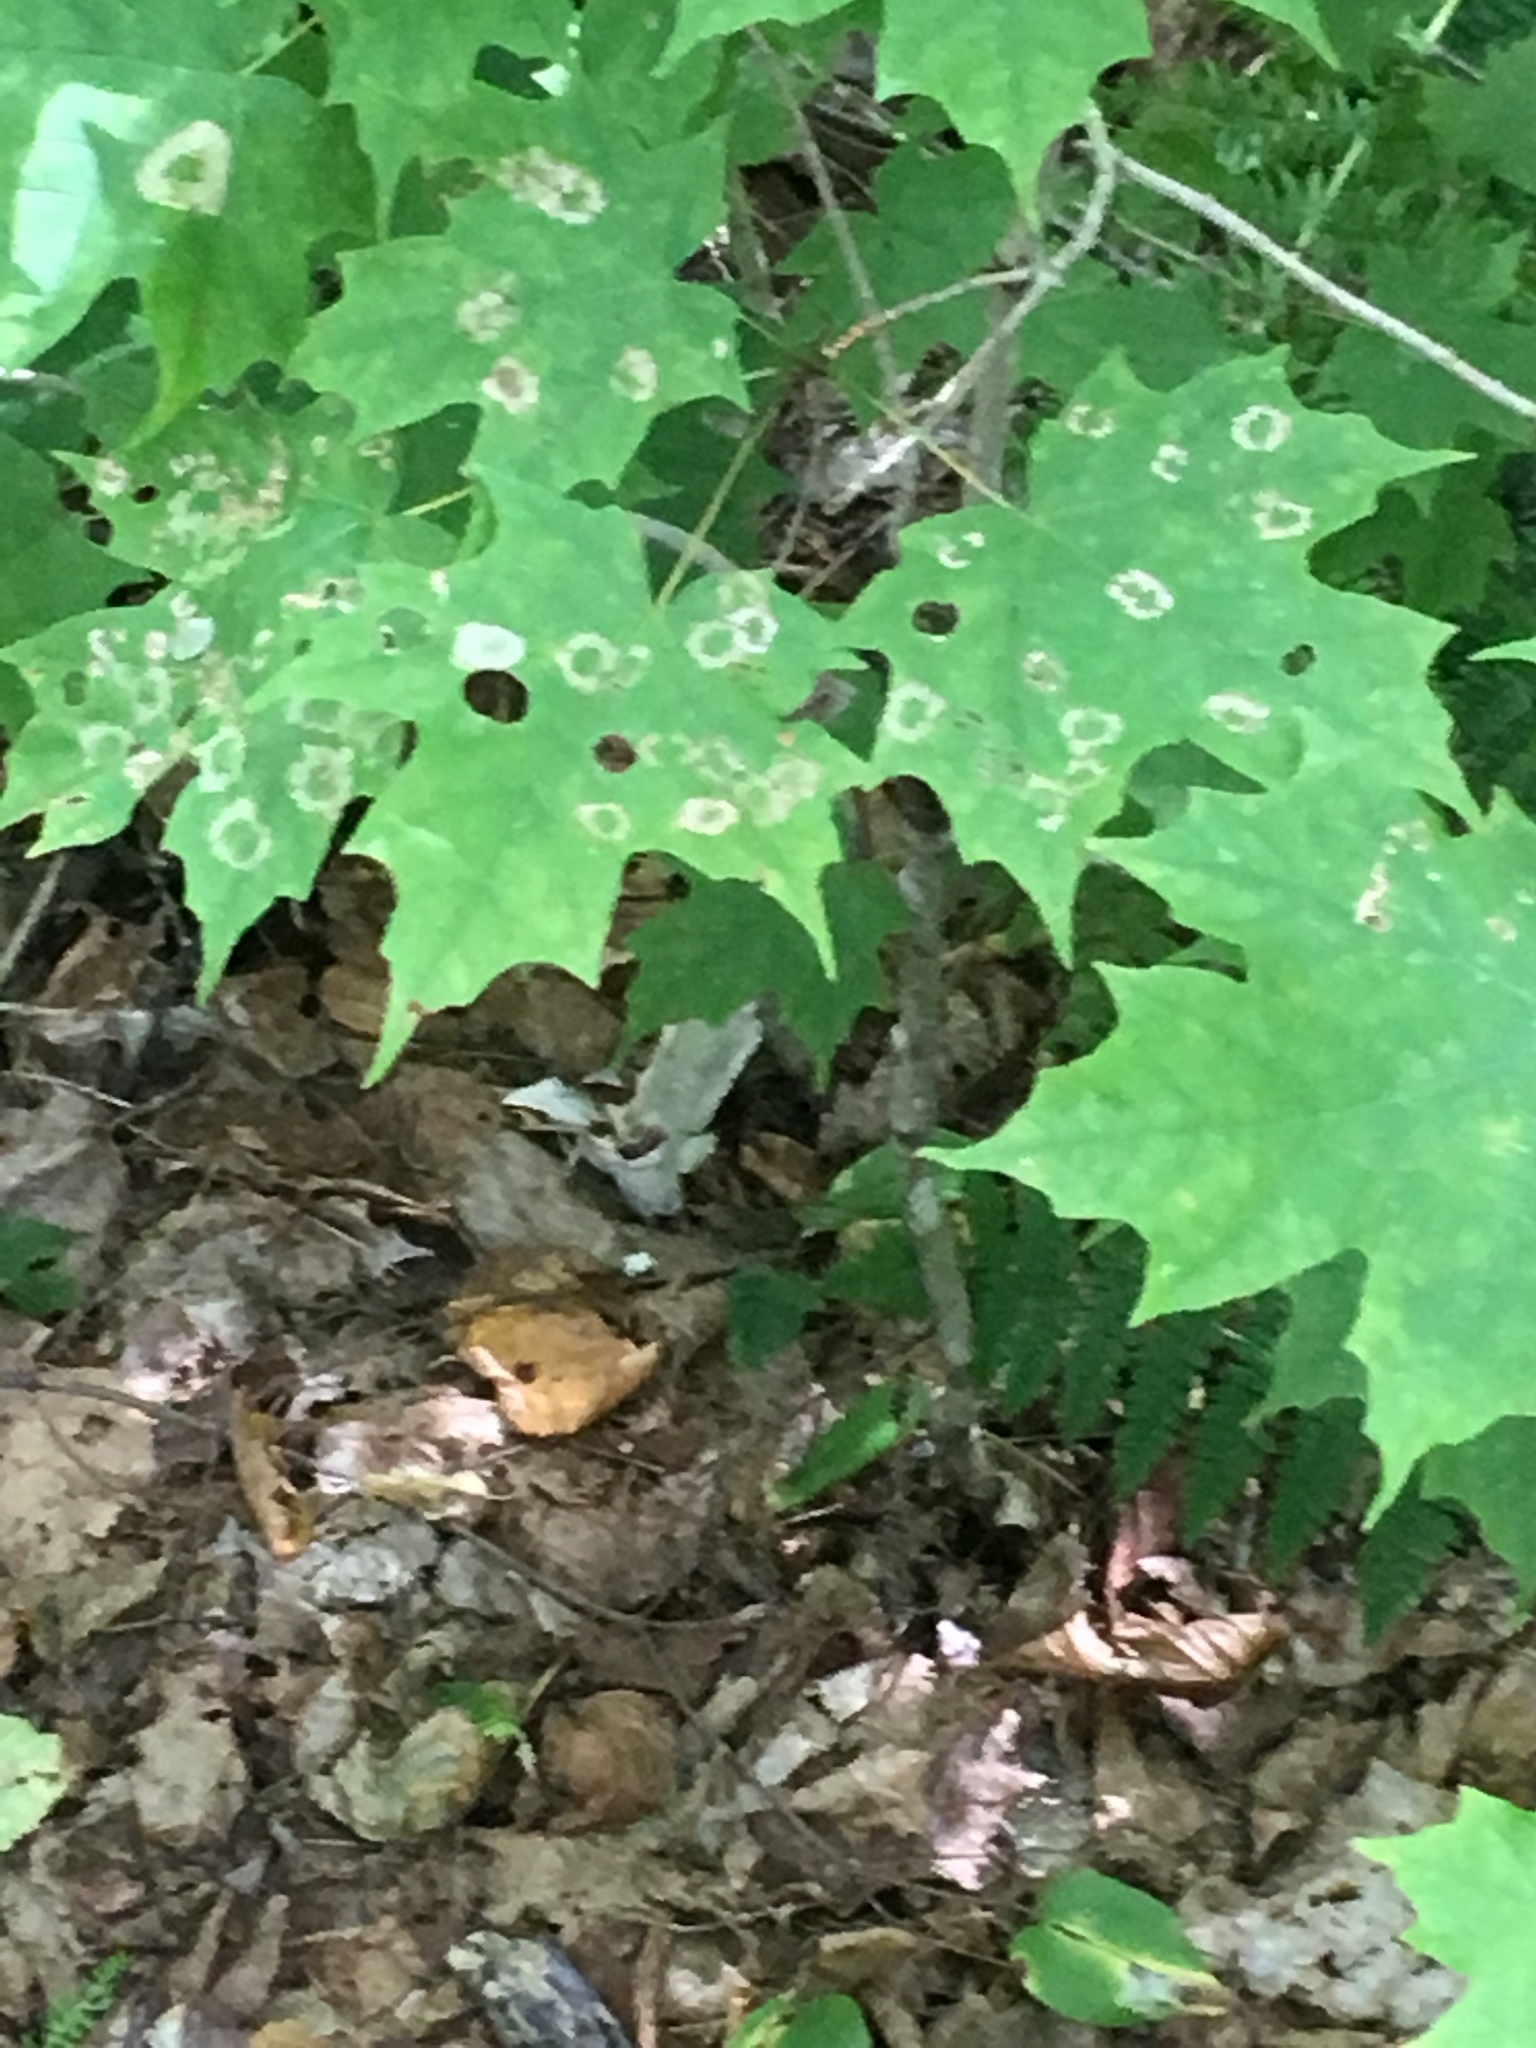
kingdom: Animalia
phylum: Arthropoda
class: Insecta
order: Lepidoptera
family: Incurvariidae
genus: Paraclemensia
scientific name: Paraclemensia acerifoliella
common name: Maple leafcutter
